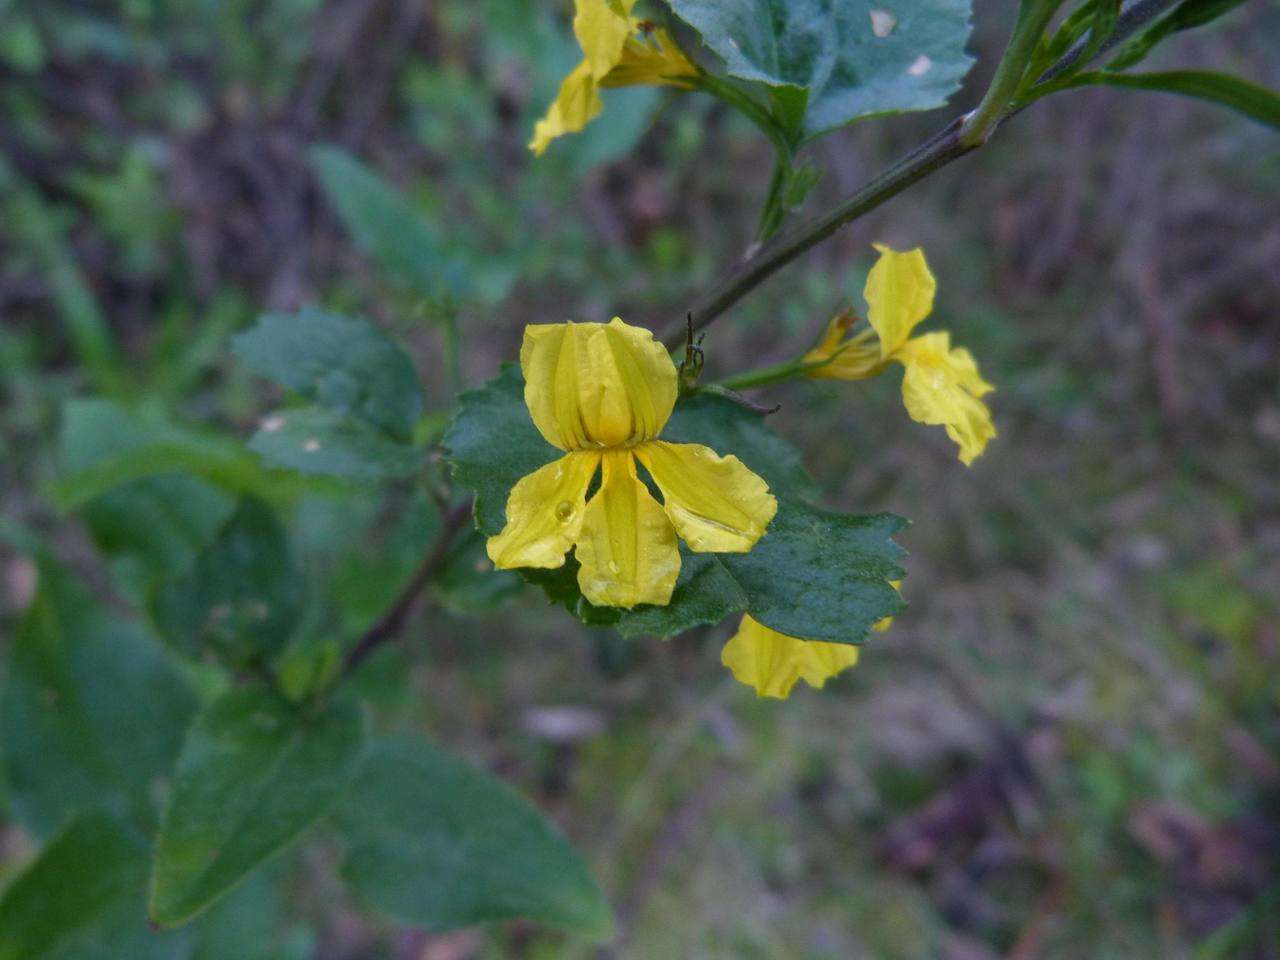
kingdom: Plantae
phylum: Tracheophyta
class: Magnoliopsida
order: Asterales
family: Goodeniaceae
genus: Goodenia
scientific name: Goodenia ovata
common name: Hop goodenia
